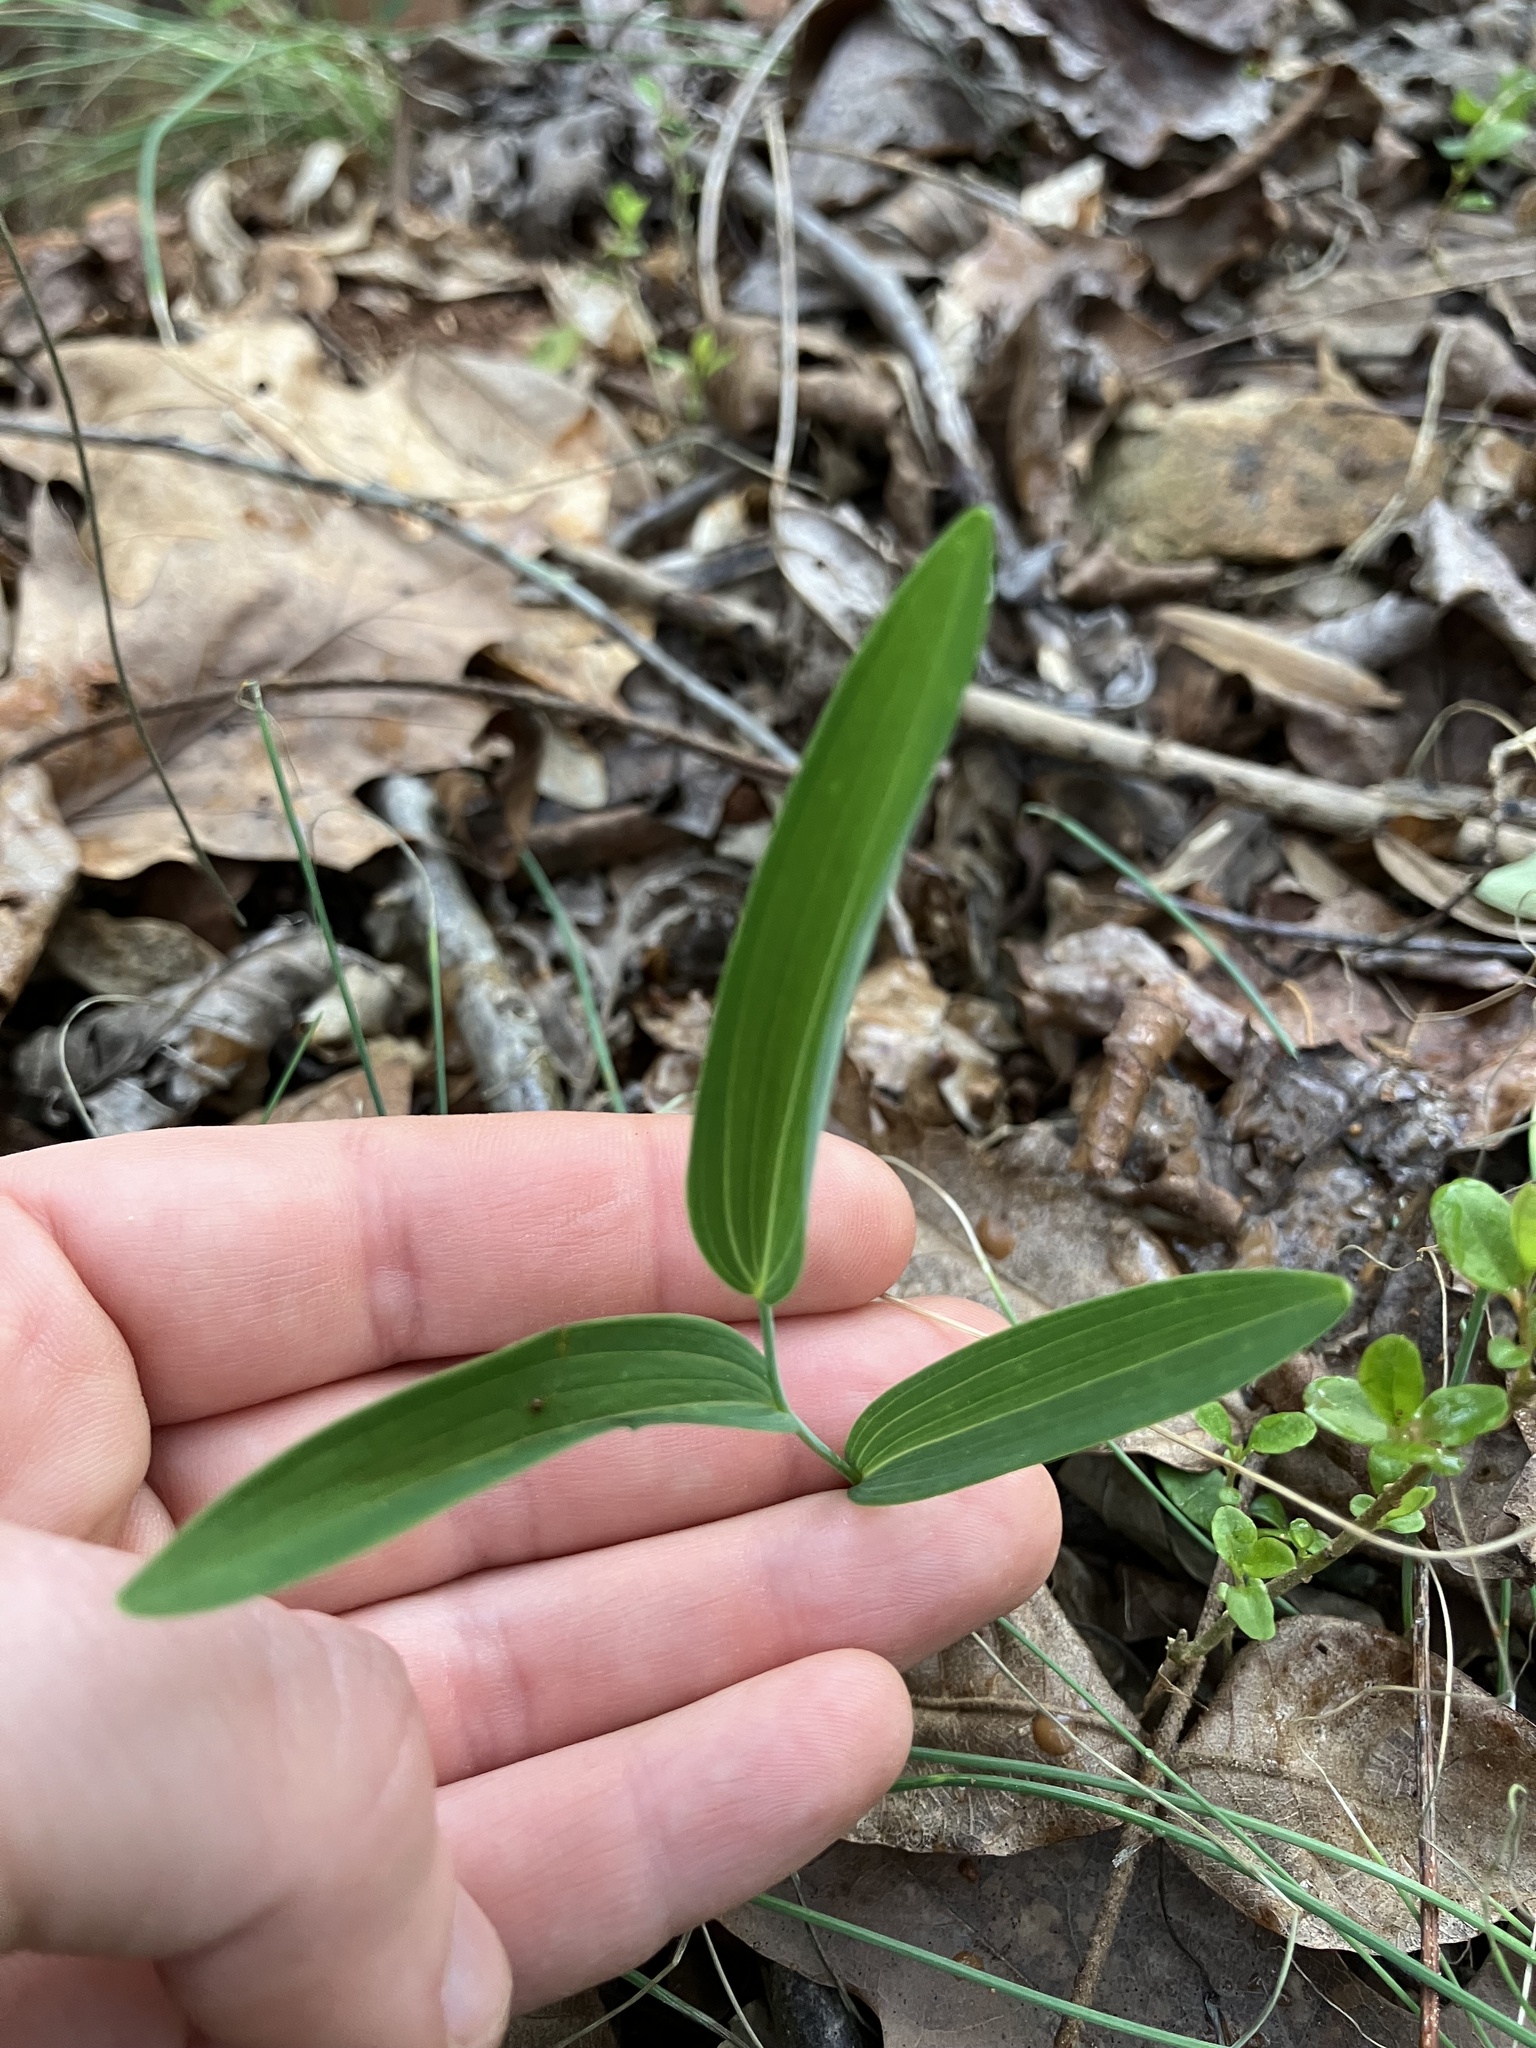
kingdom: Plantae
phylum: Tracheophyta
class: Liliopsida
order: Asparagales
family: Asparagaceae
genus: Polygonatum
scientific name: Polygonatum biflorum
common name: American solomon's-seal
